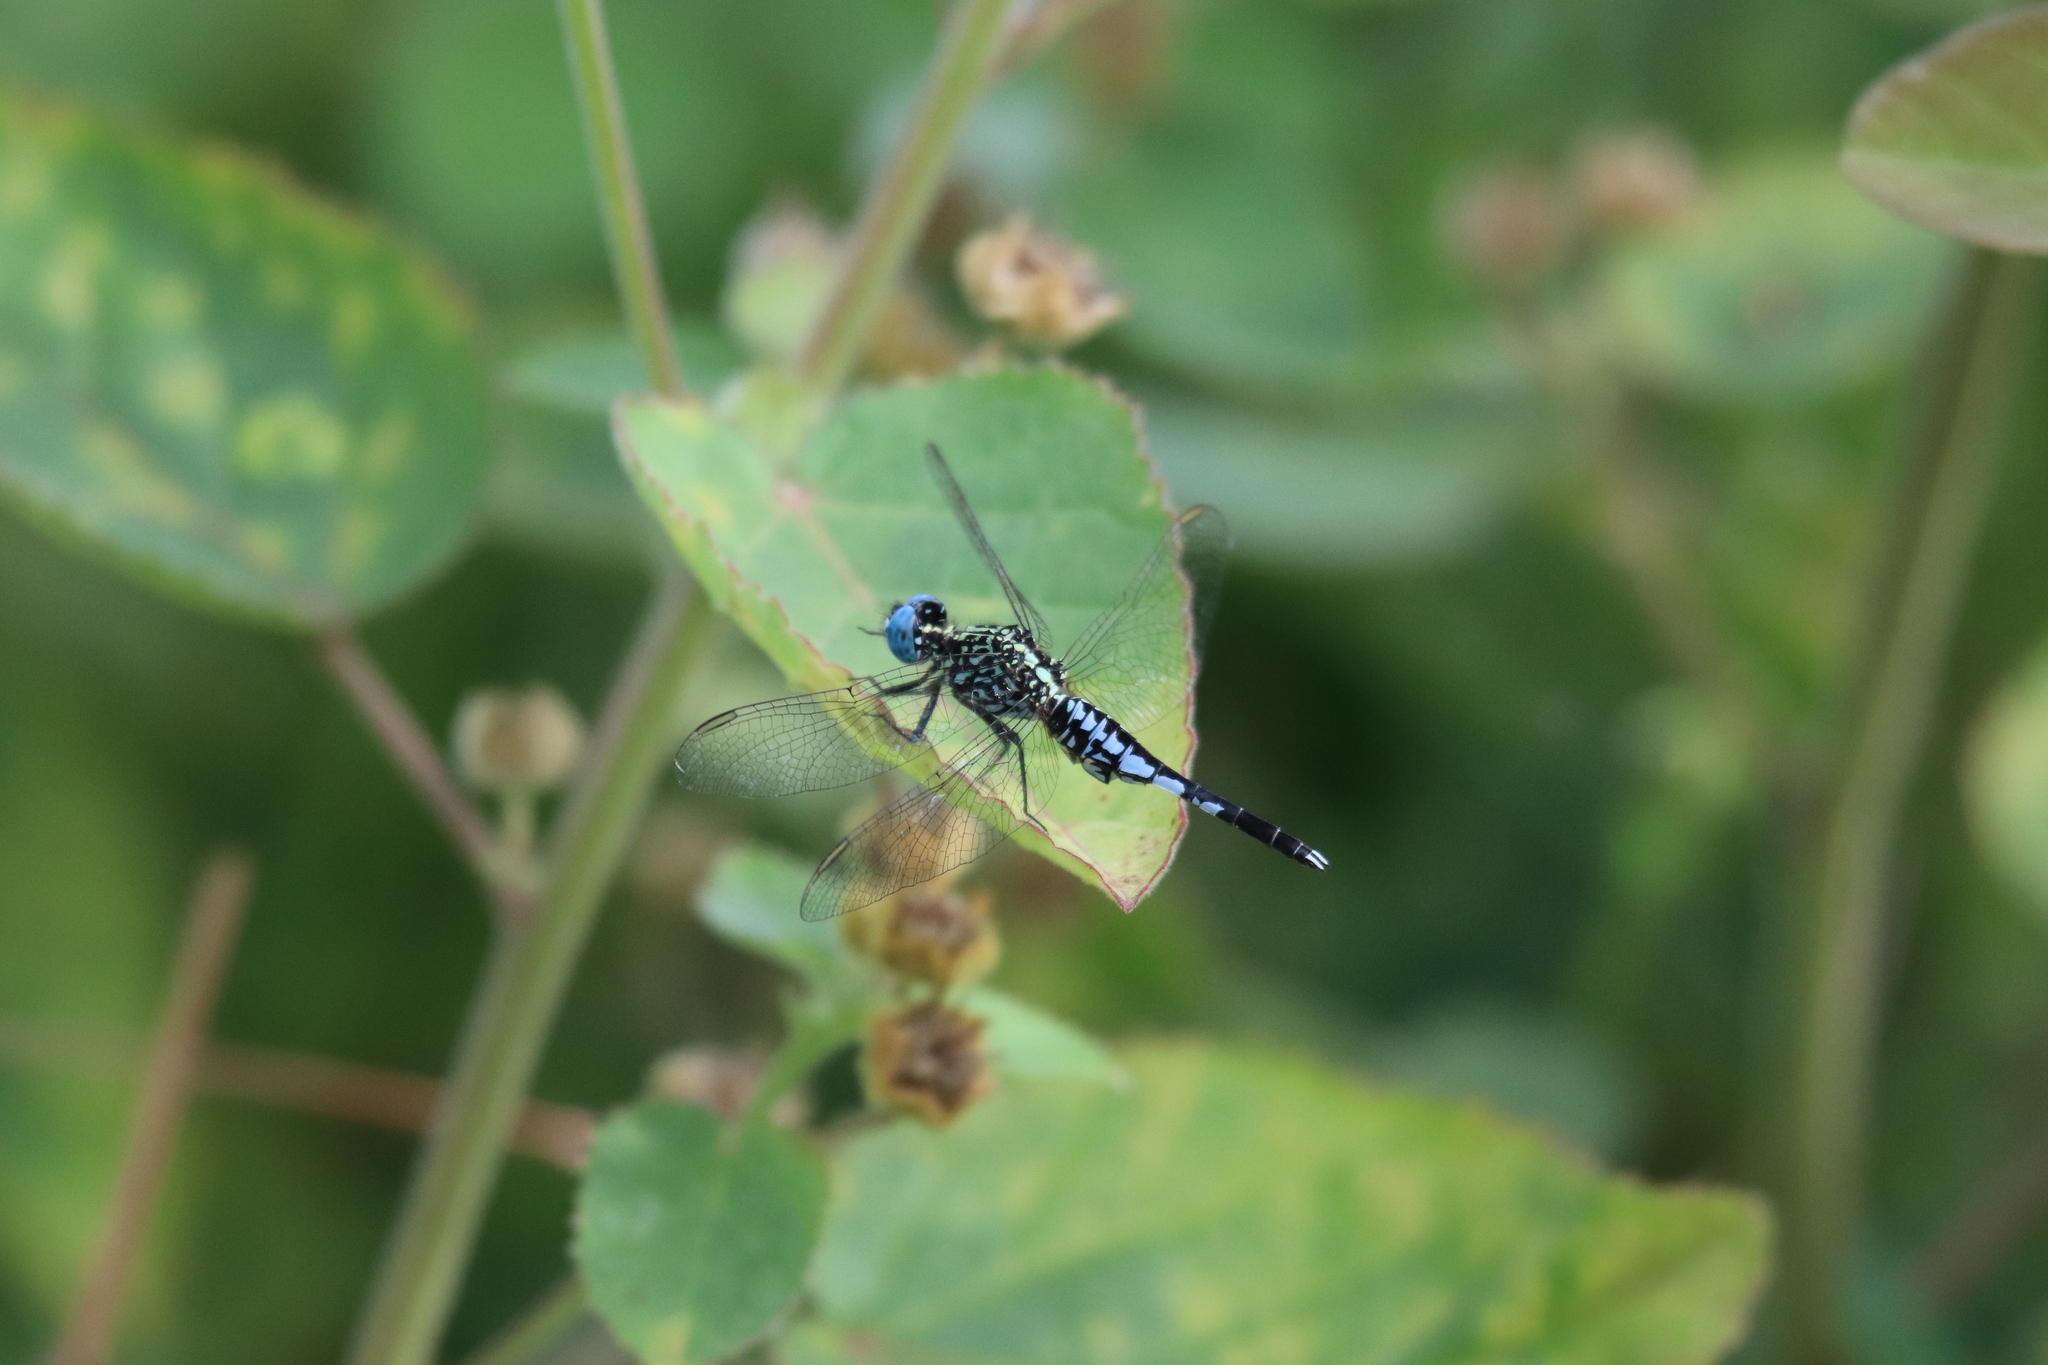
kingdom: Animalia
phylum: Arthropoda
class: Insecta
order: Odonata
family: Libellulidae
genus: Acisoma
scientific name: Acisoma inflatum
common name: Stout pintail
